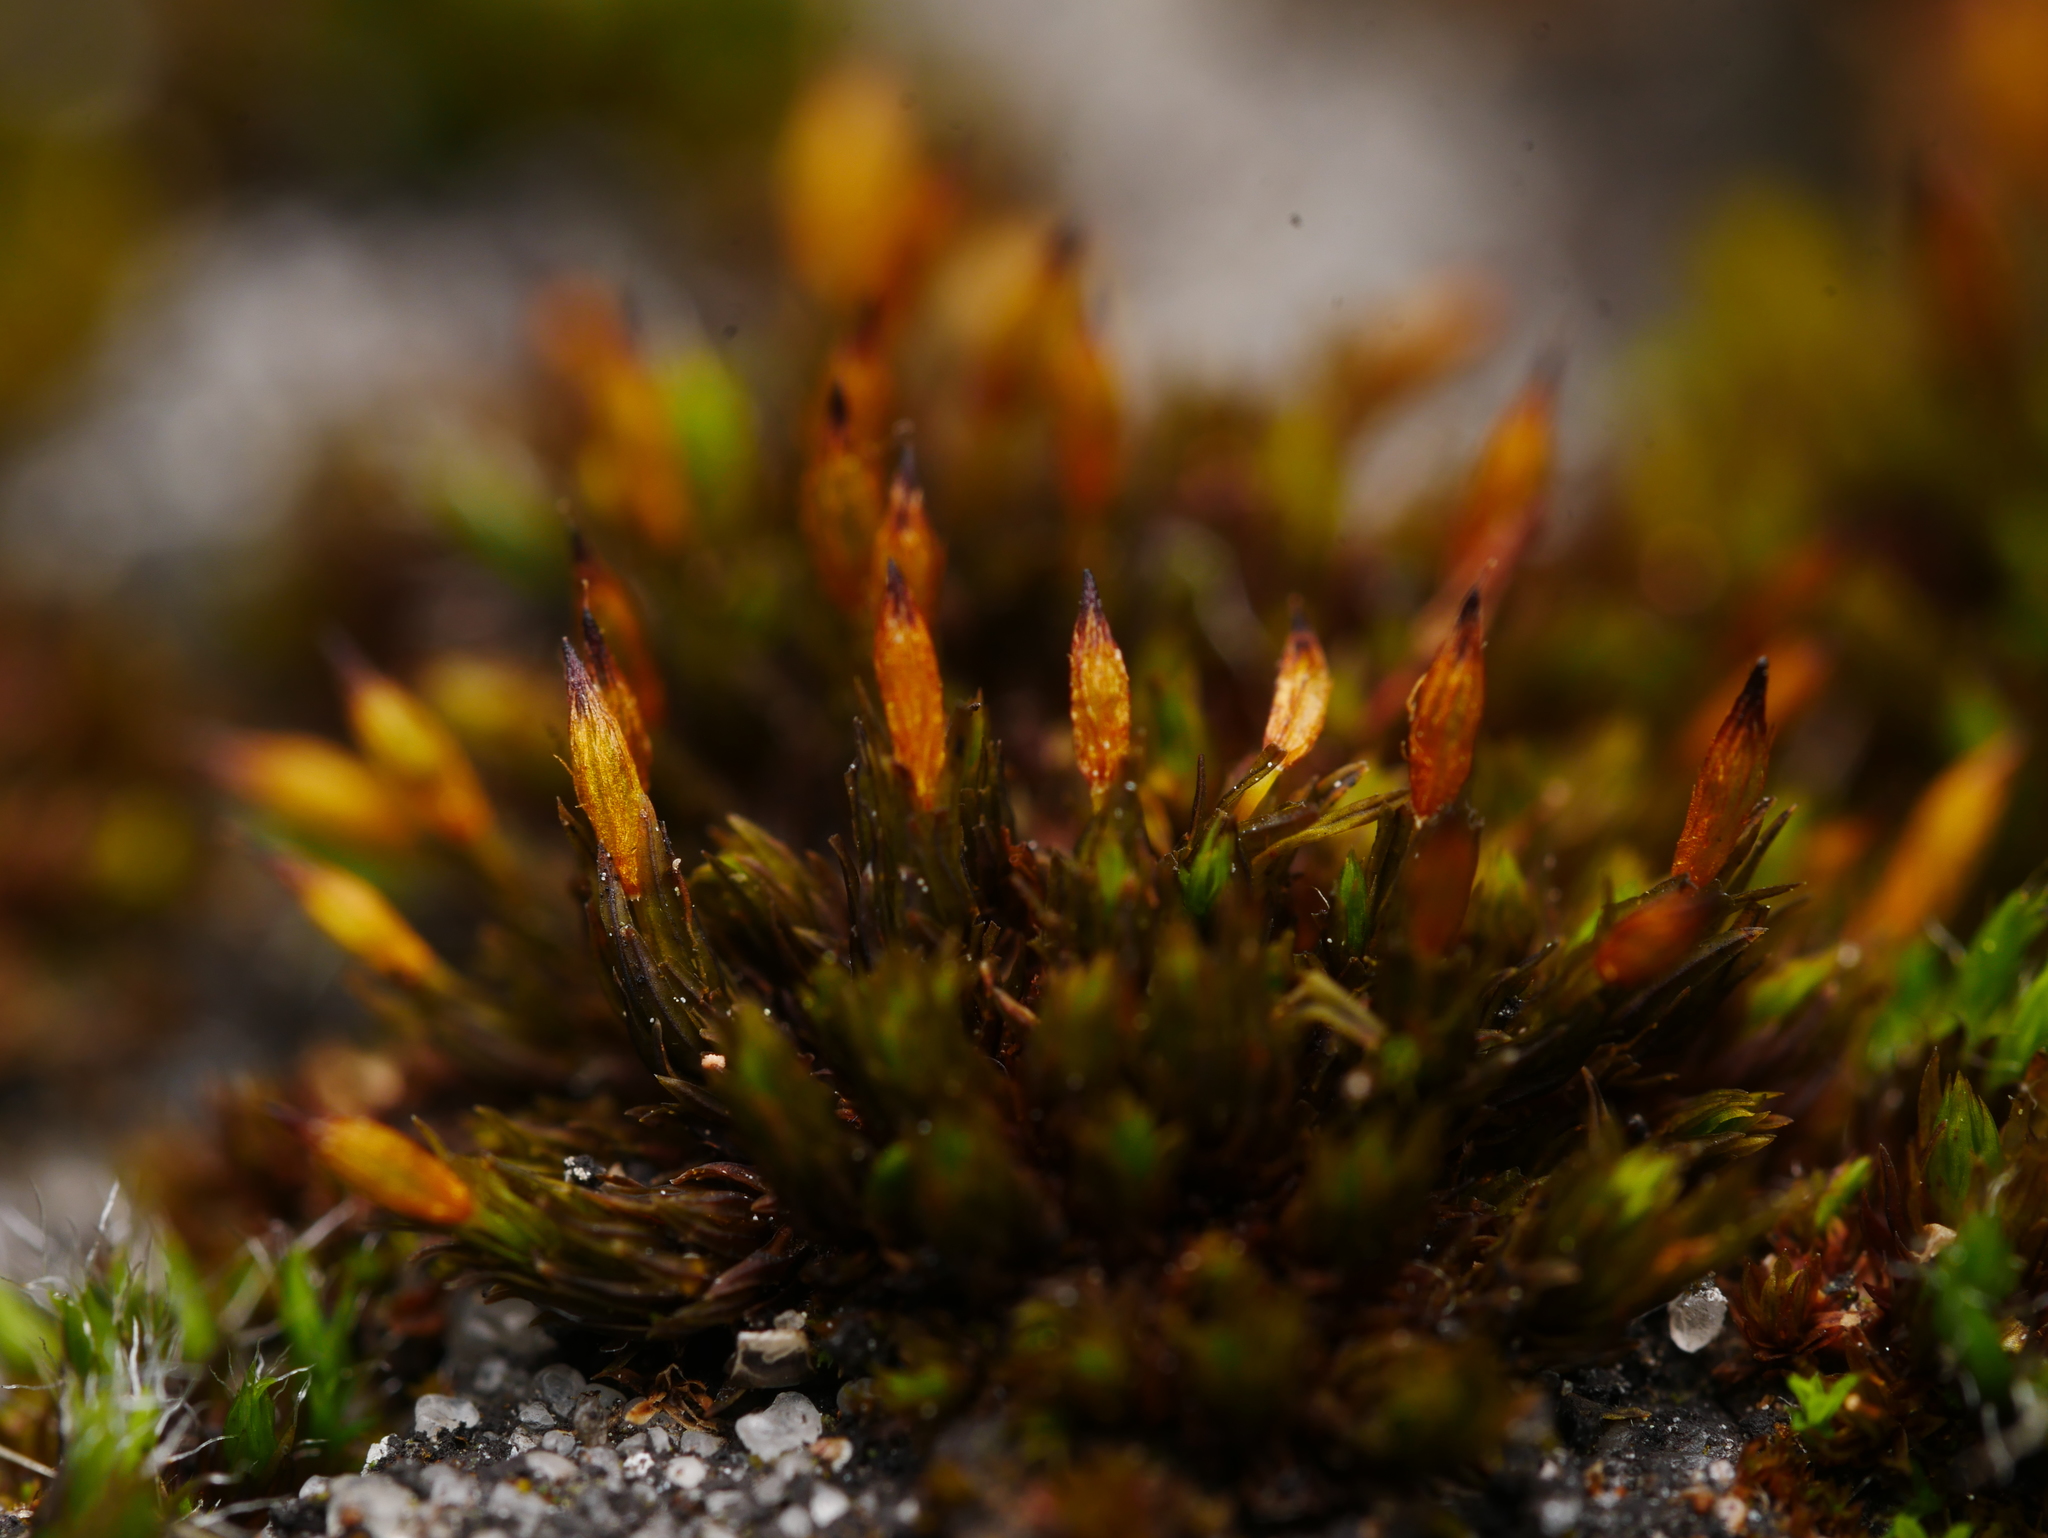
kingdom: Plantae
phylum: Bryophyta
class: Bryopsida
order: Orthotrichales
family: Orthotrichaceae
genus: Orthotrichum
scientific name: Orthotrichum anomalum
